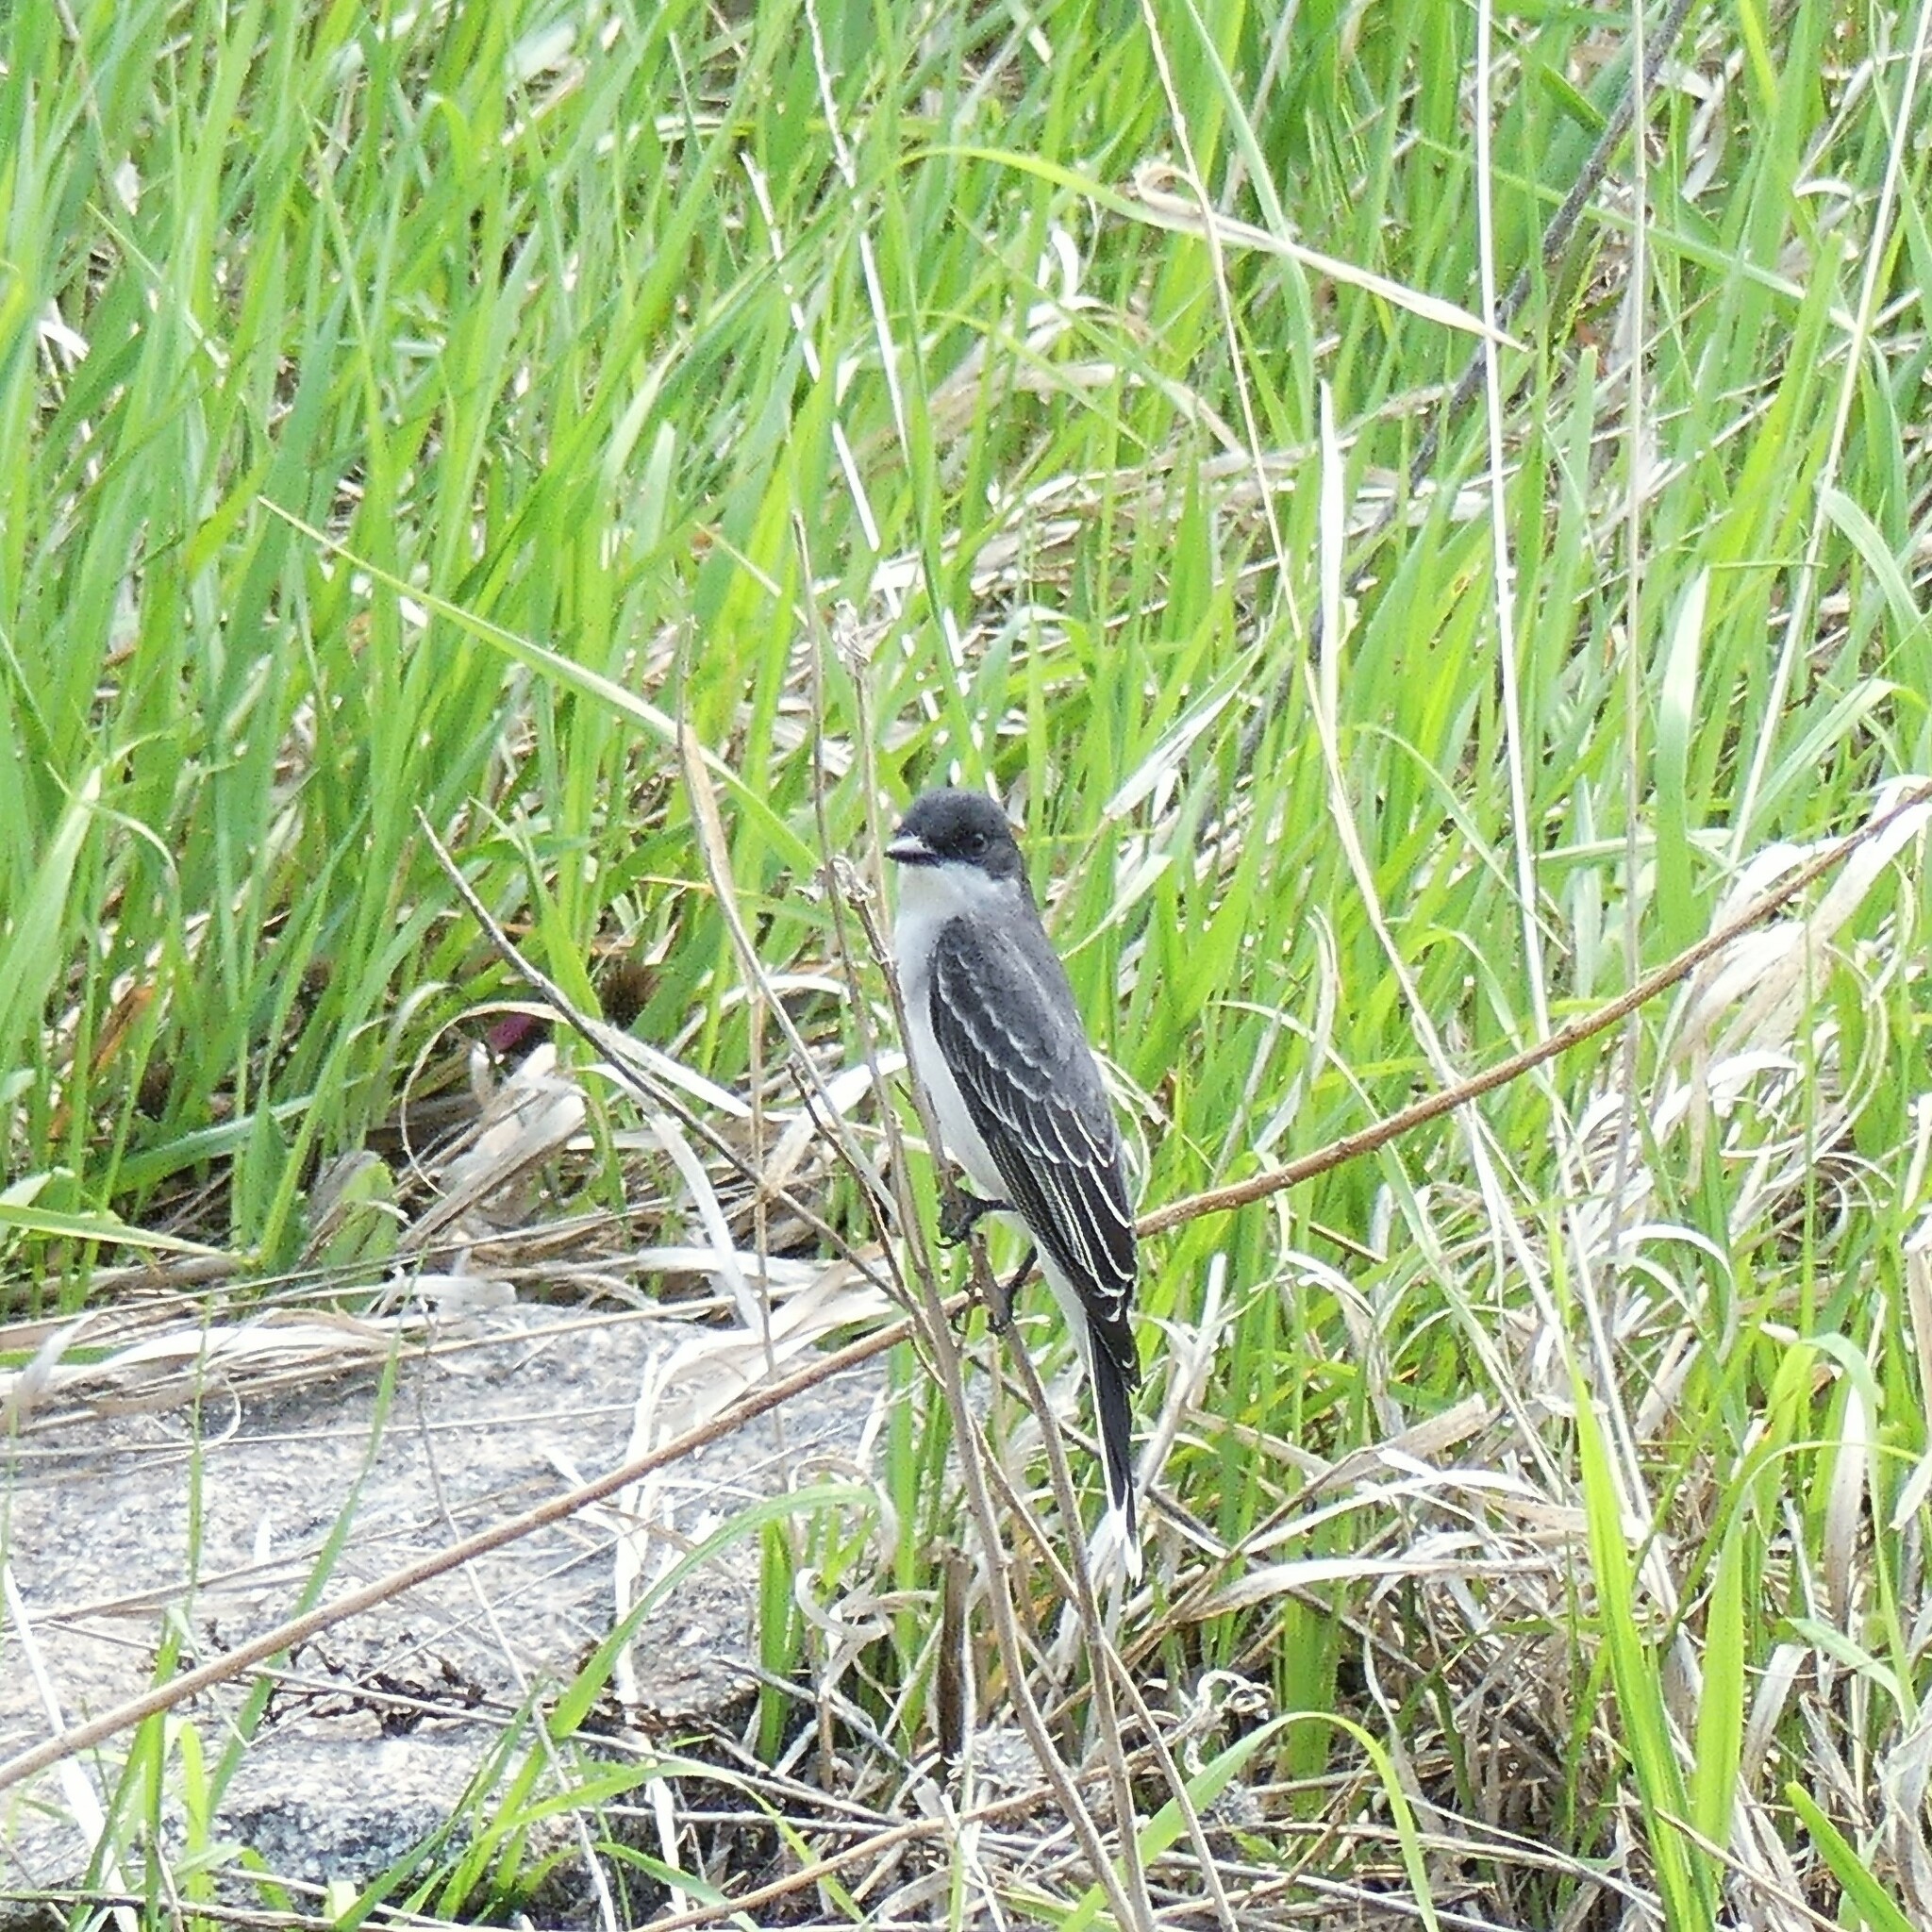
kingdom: Animalia
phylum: Chordata
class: Aves
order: Passeriformes
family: Tyrannidae
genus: Tyrannus
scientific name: Tyrannus tyrannus
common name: Eastern kingbird
